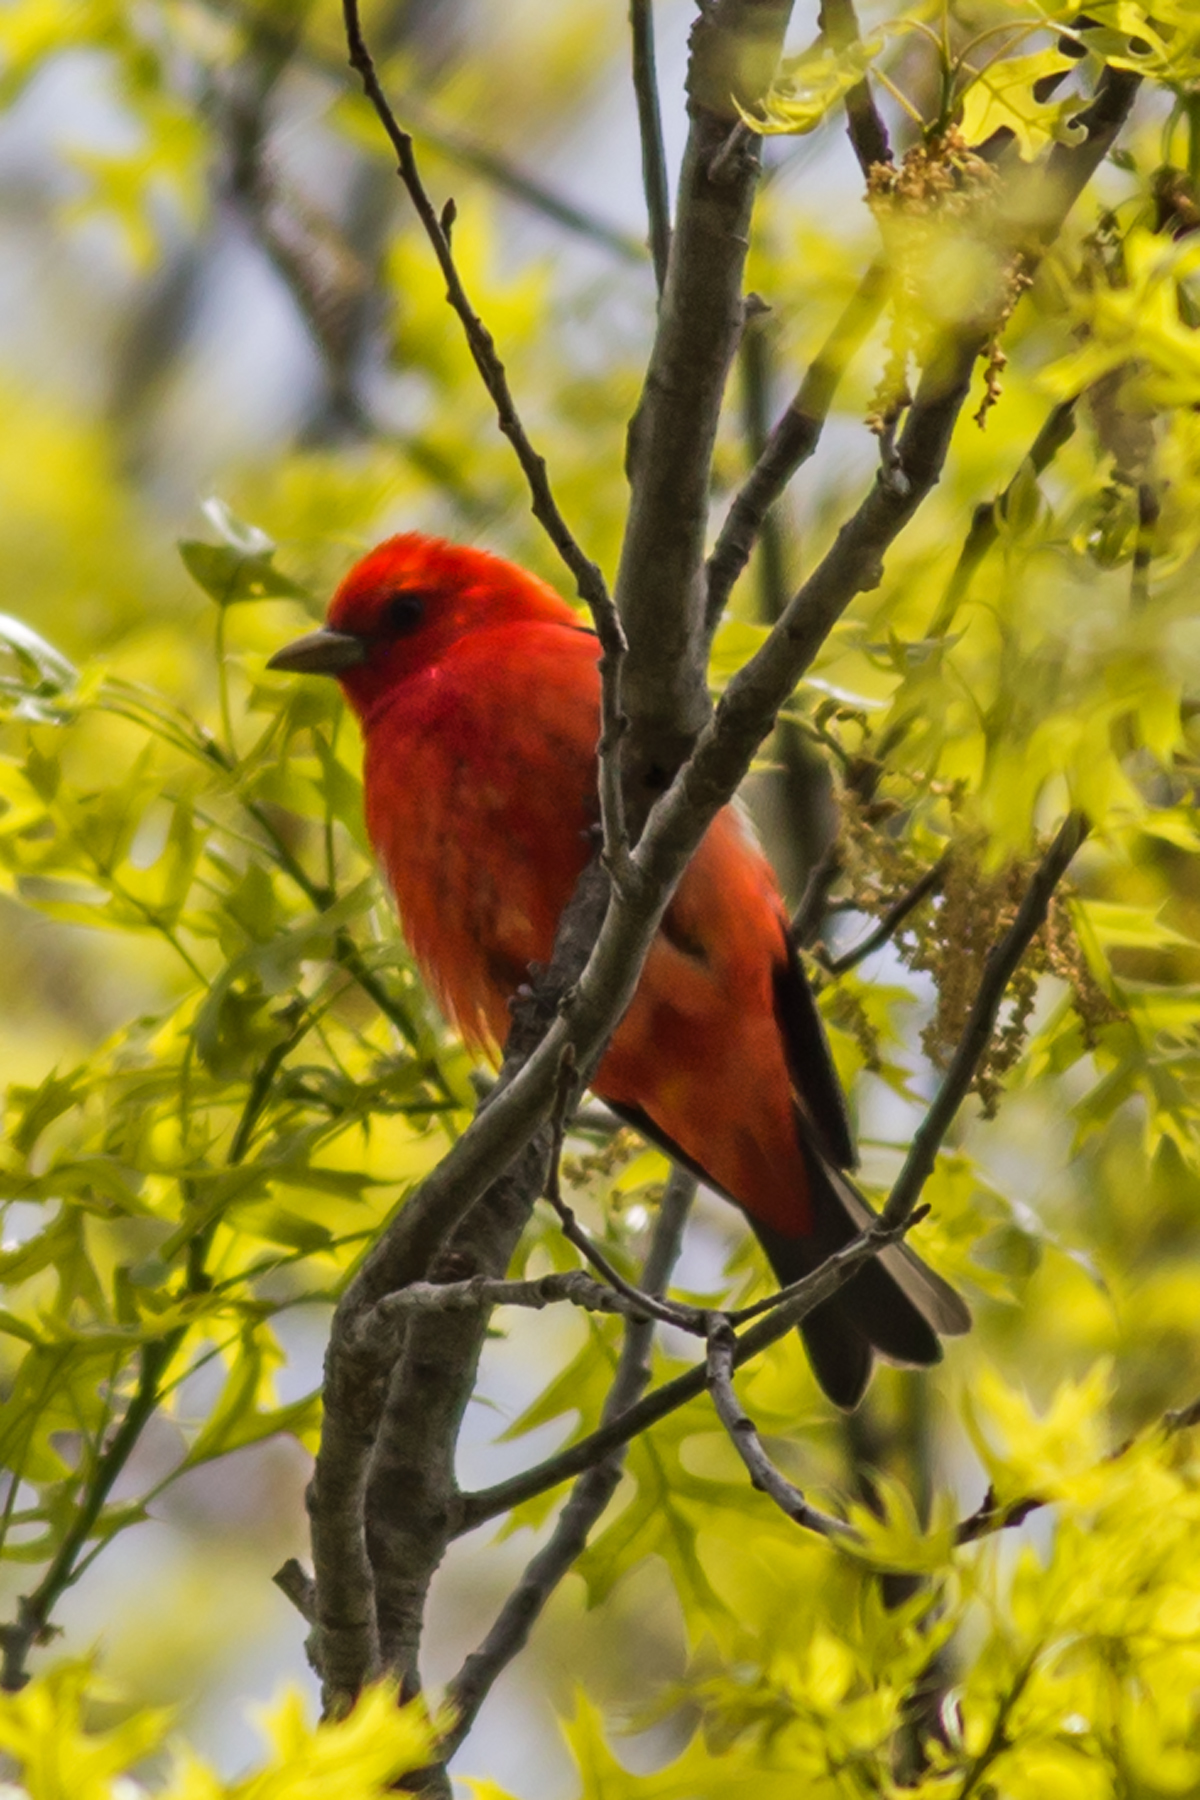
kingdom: Animalia
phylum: Chordata
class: Aves
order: Passeriformes
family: Cardinalidae
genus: Piranga
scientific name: Piranga olivacea
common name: Scarlet tanager
